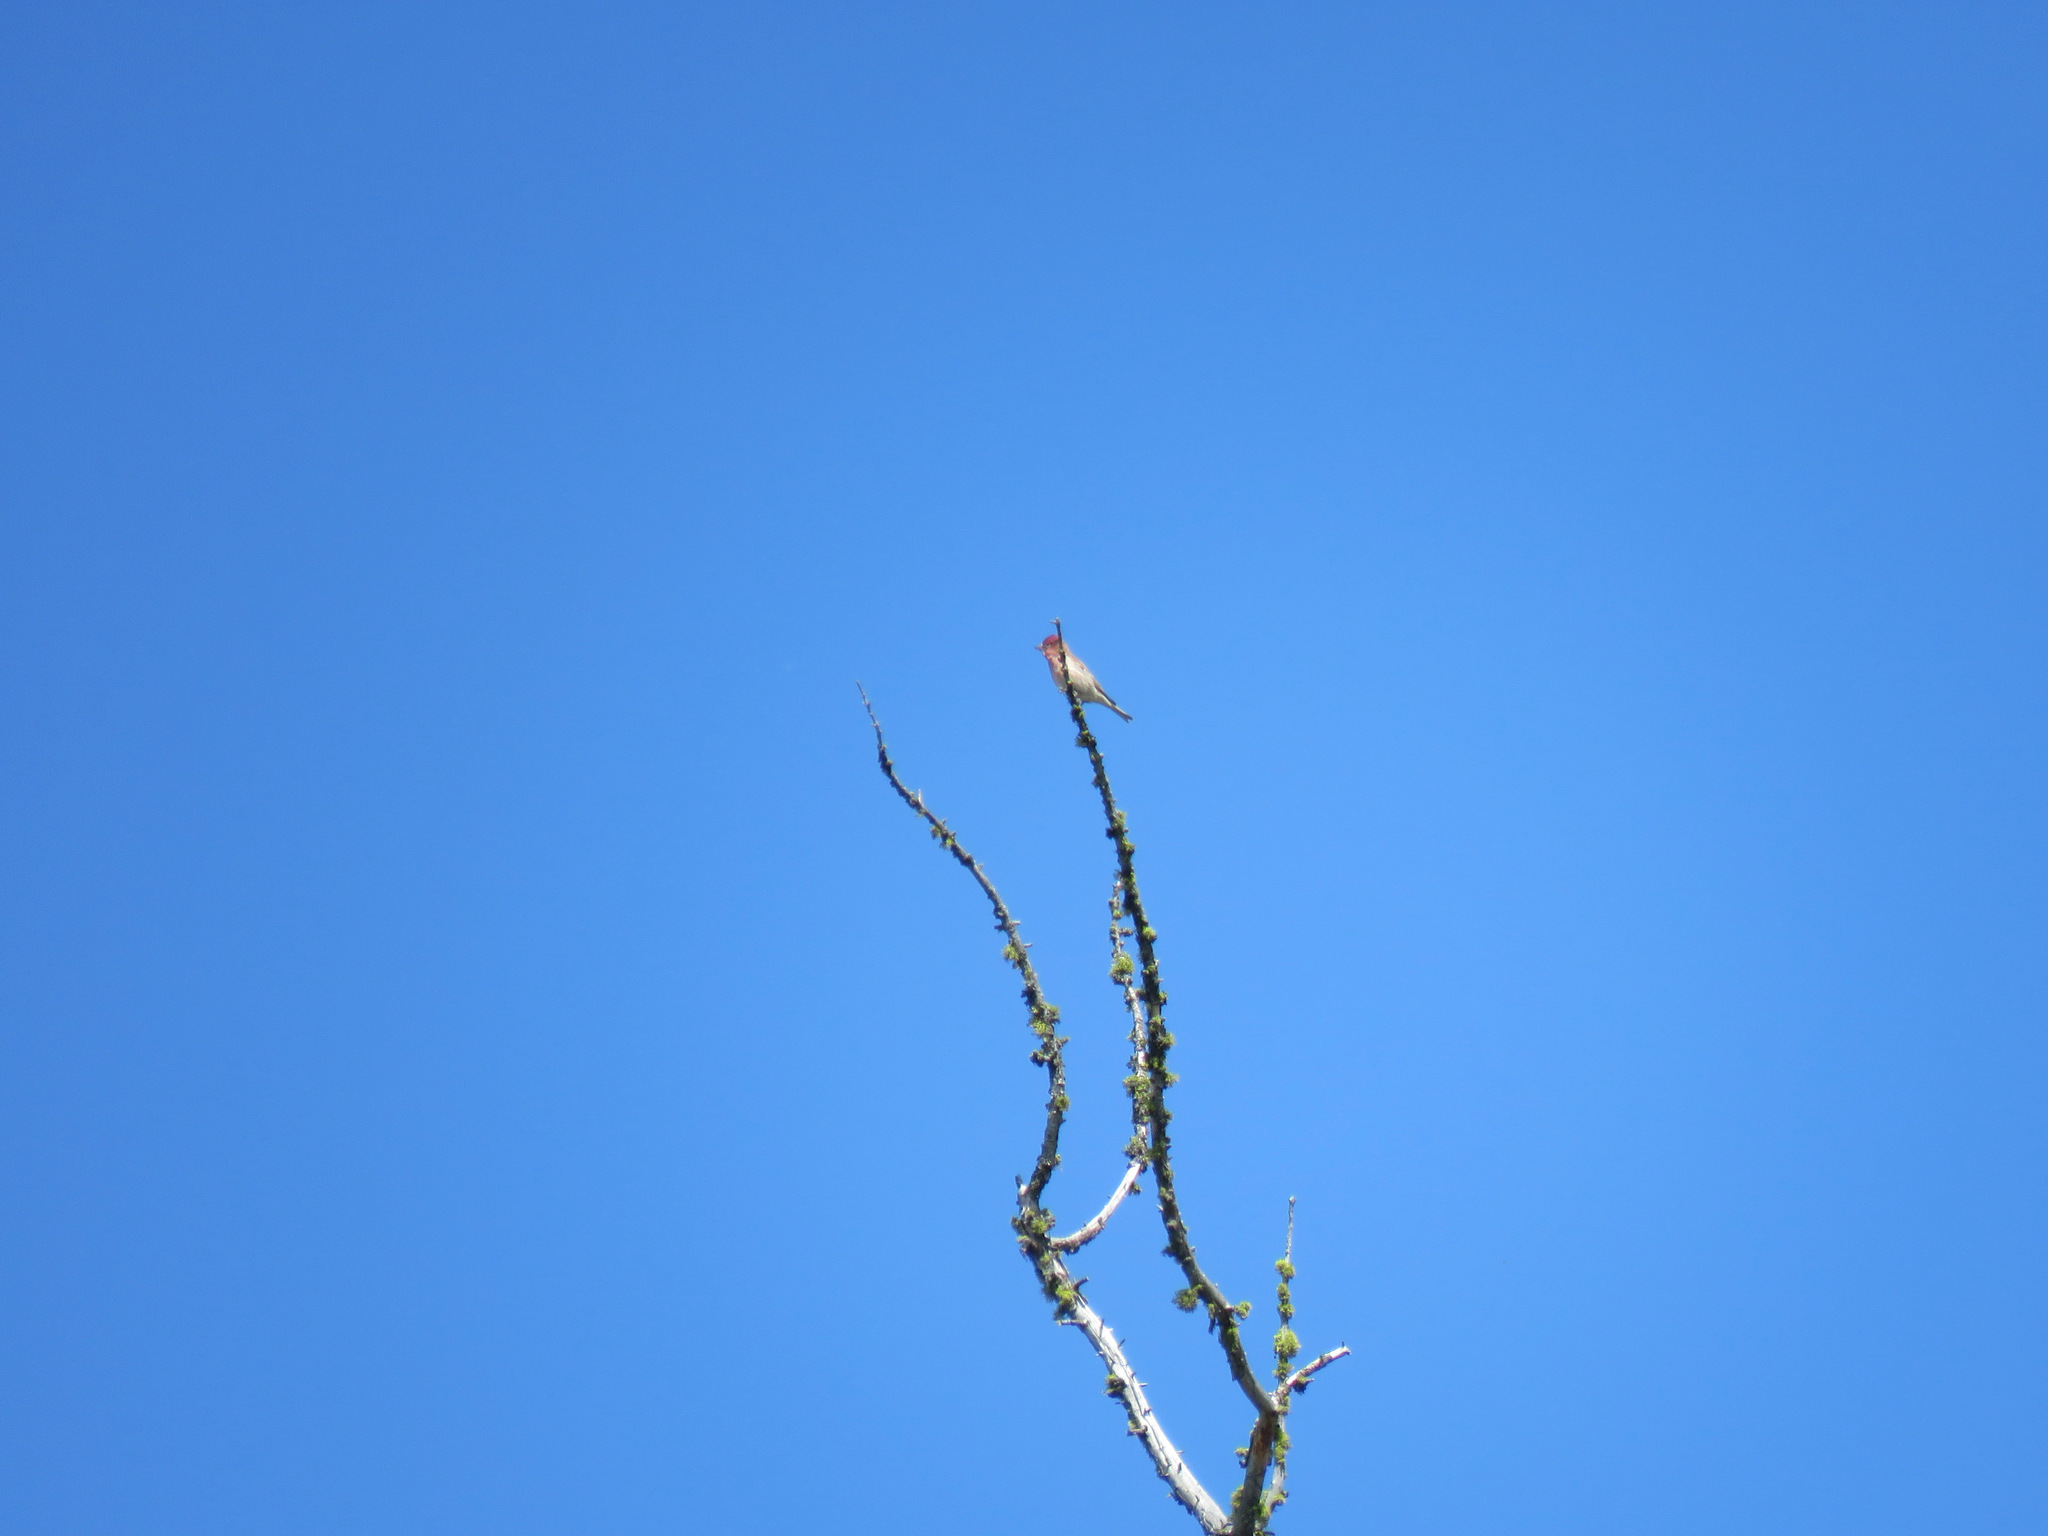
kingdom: Animalia
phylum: Chordata
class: Aves
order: Passeriformes
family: Fringillidae
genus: Haemorhous
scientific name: Haemorhous cassinii
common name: Cassin's finch
